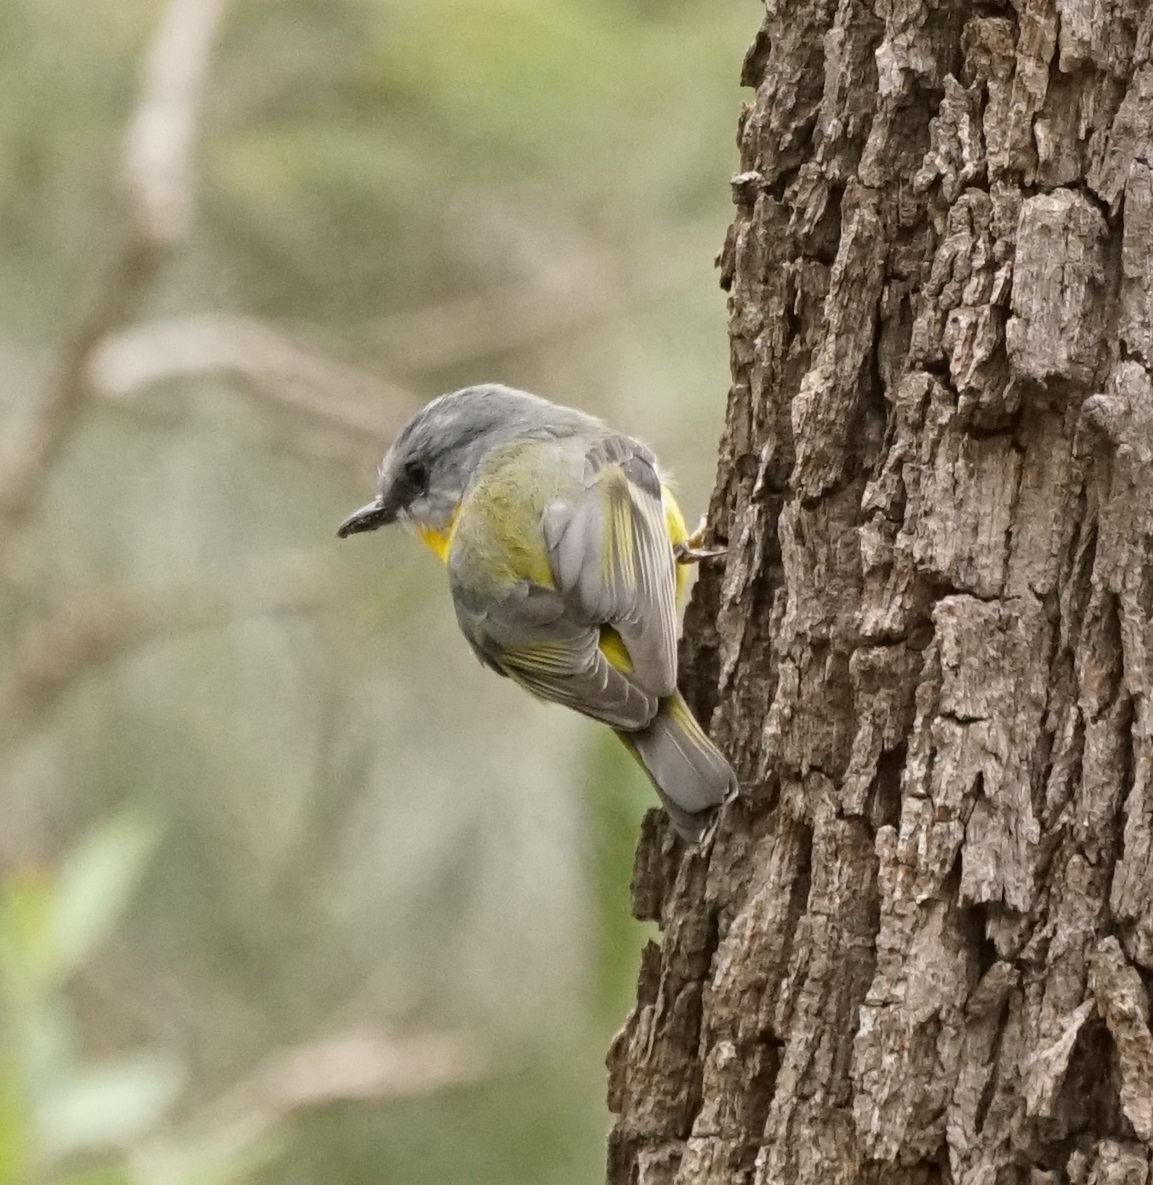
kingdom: Animalia
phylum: Chordata
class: Aves
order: Passeriformes
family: Petroicidae
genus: Eopsaltria
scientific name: Eopsaltria australis
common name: Eastern yellow robin
